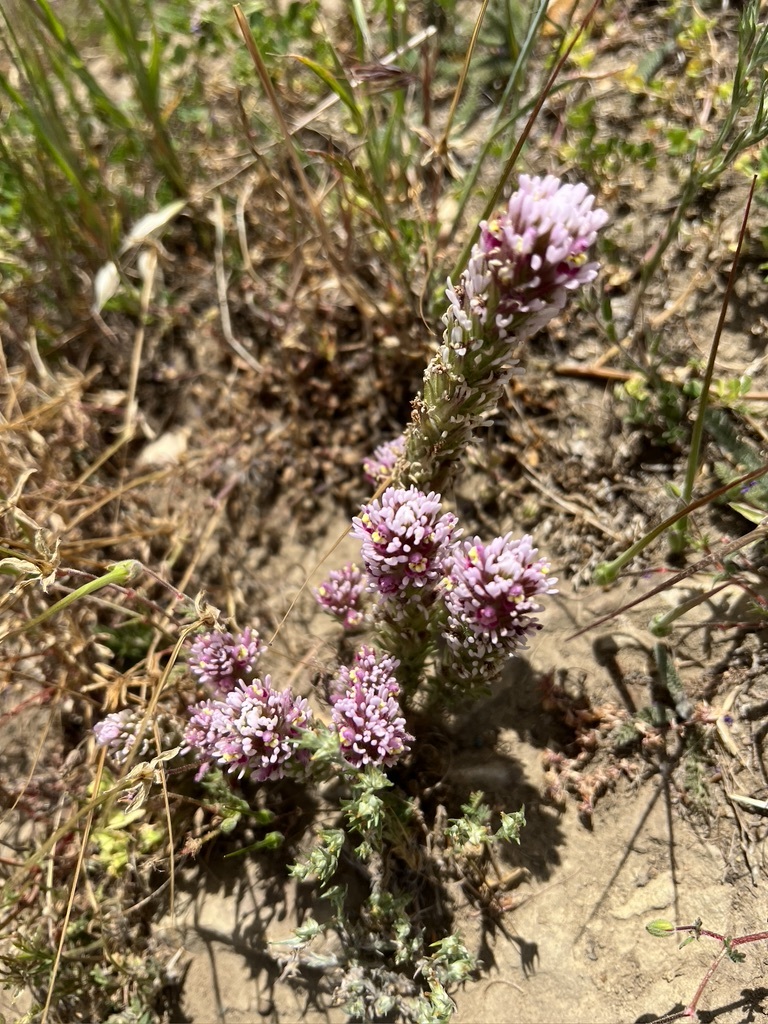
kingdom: Plantae
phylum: Tracheophyta
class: Magnoliopsida
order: Lamiales
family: Orobanchaceae
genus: Castilleja
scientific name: Castilleja exserta
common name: Purple owl-clover
